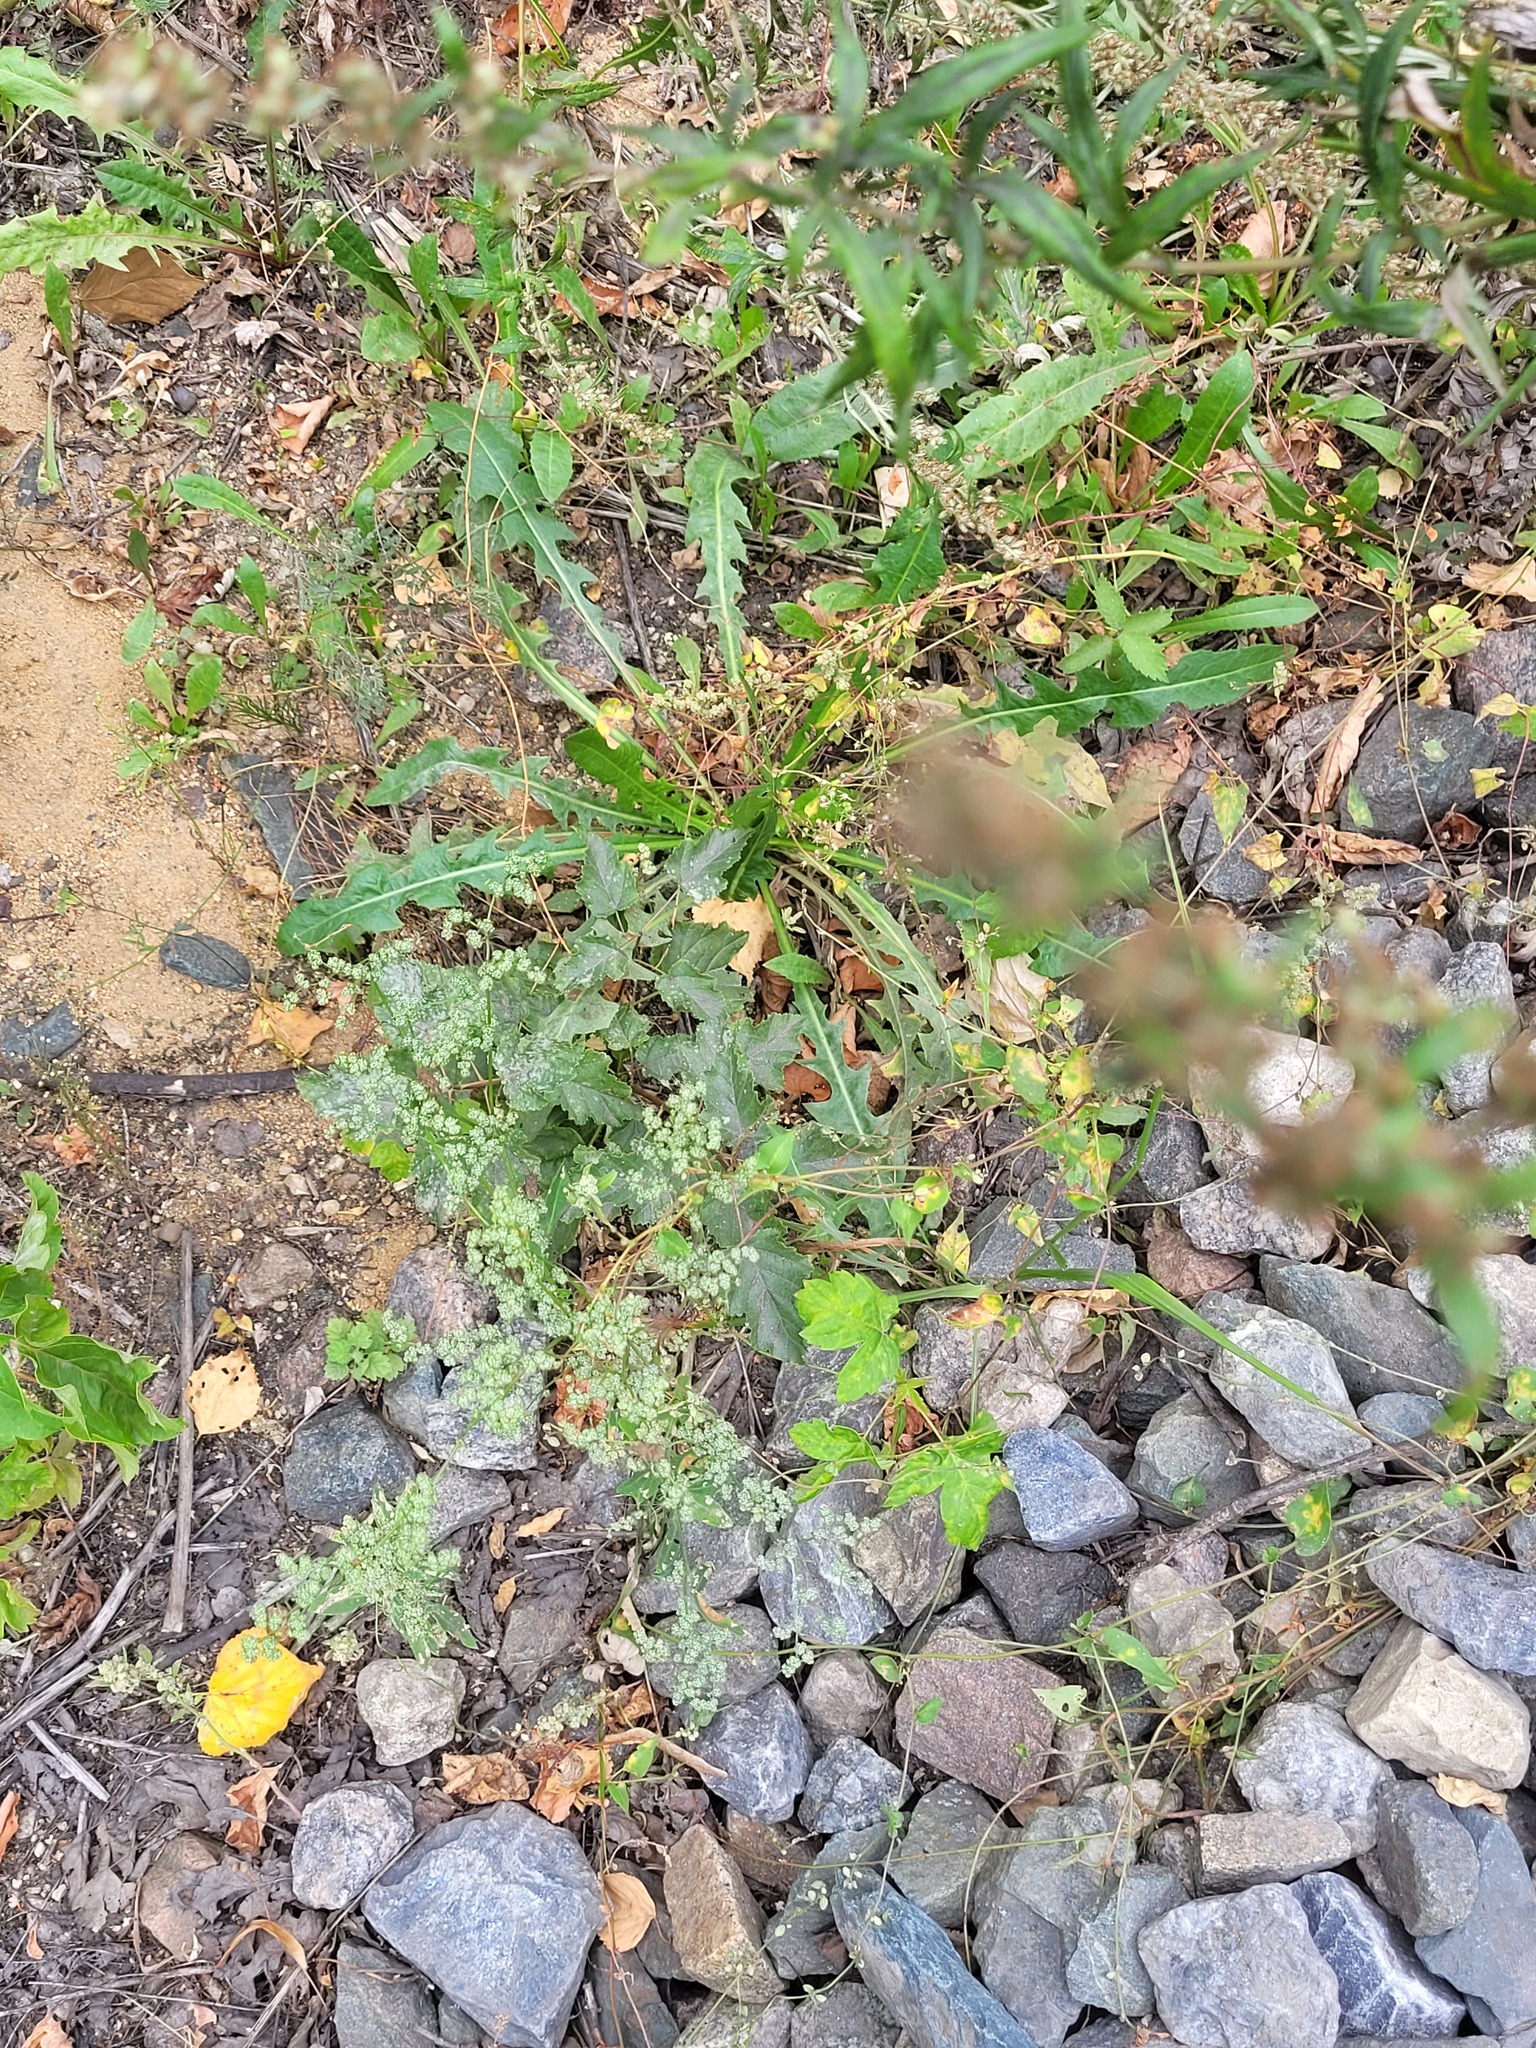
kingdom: Plantae
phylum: Tracheophyta
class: Magnoliopsida
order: Asterales
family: Asteraceae
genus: Taraxacum
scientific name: Taraxacum officinale
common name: Common dandelion
